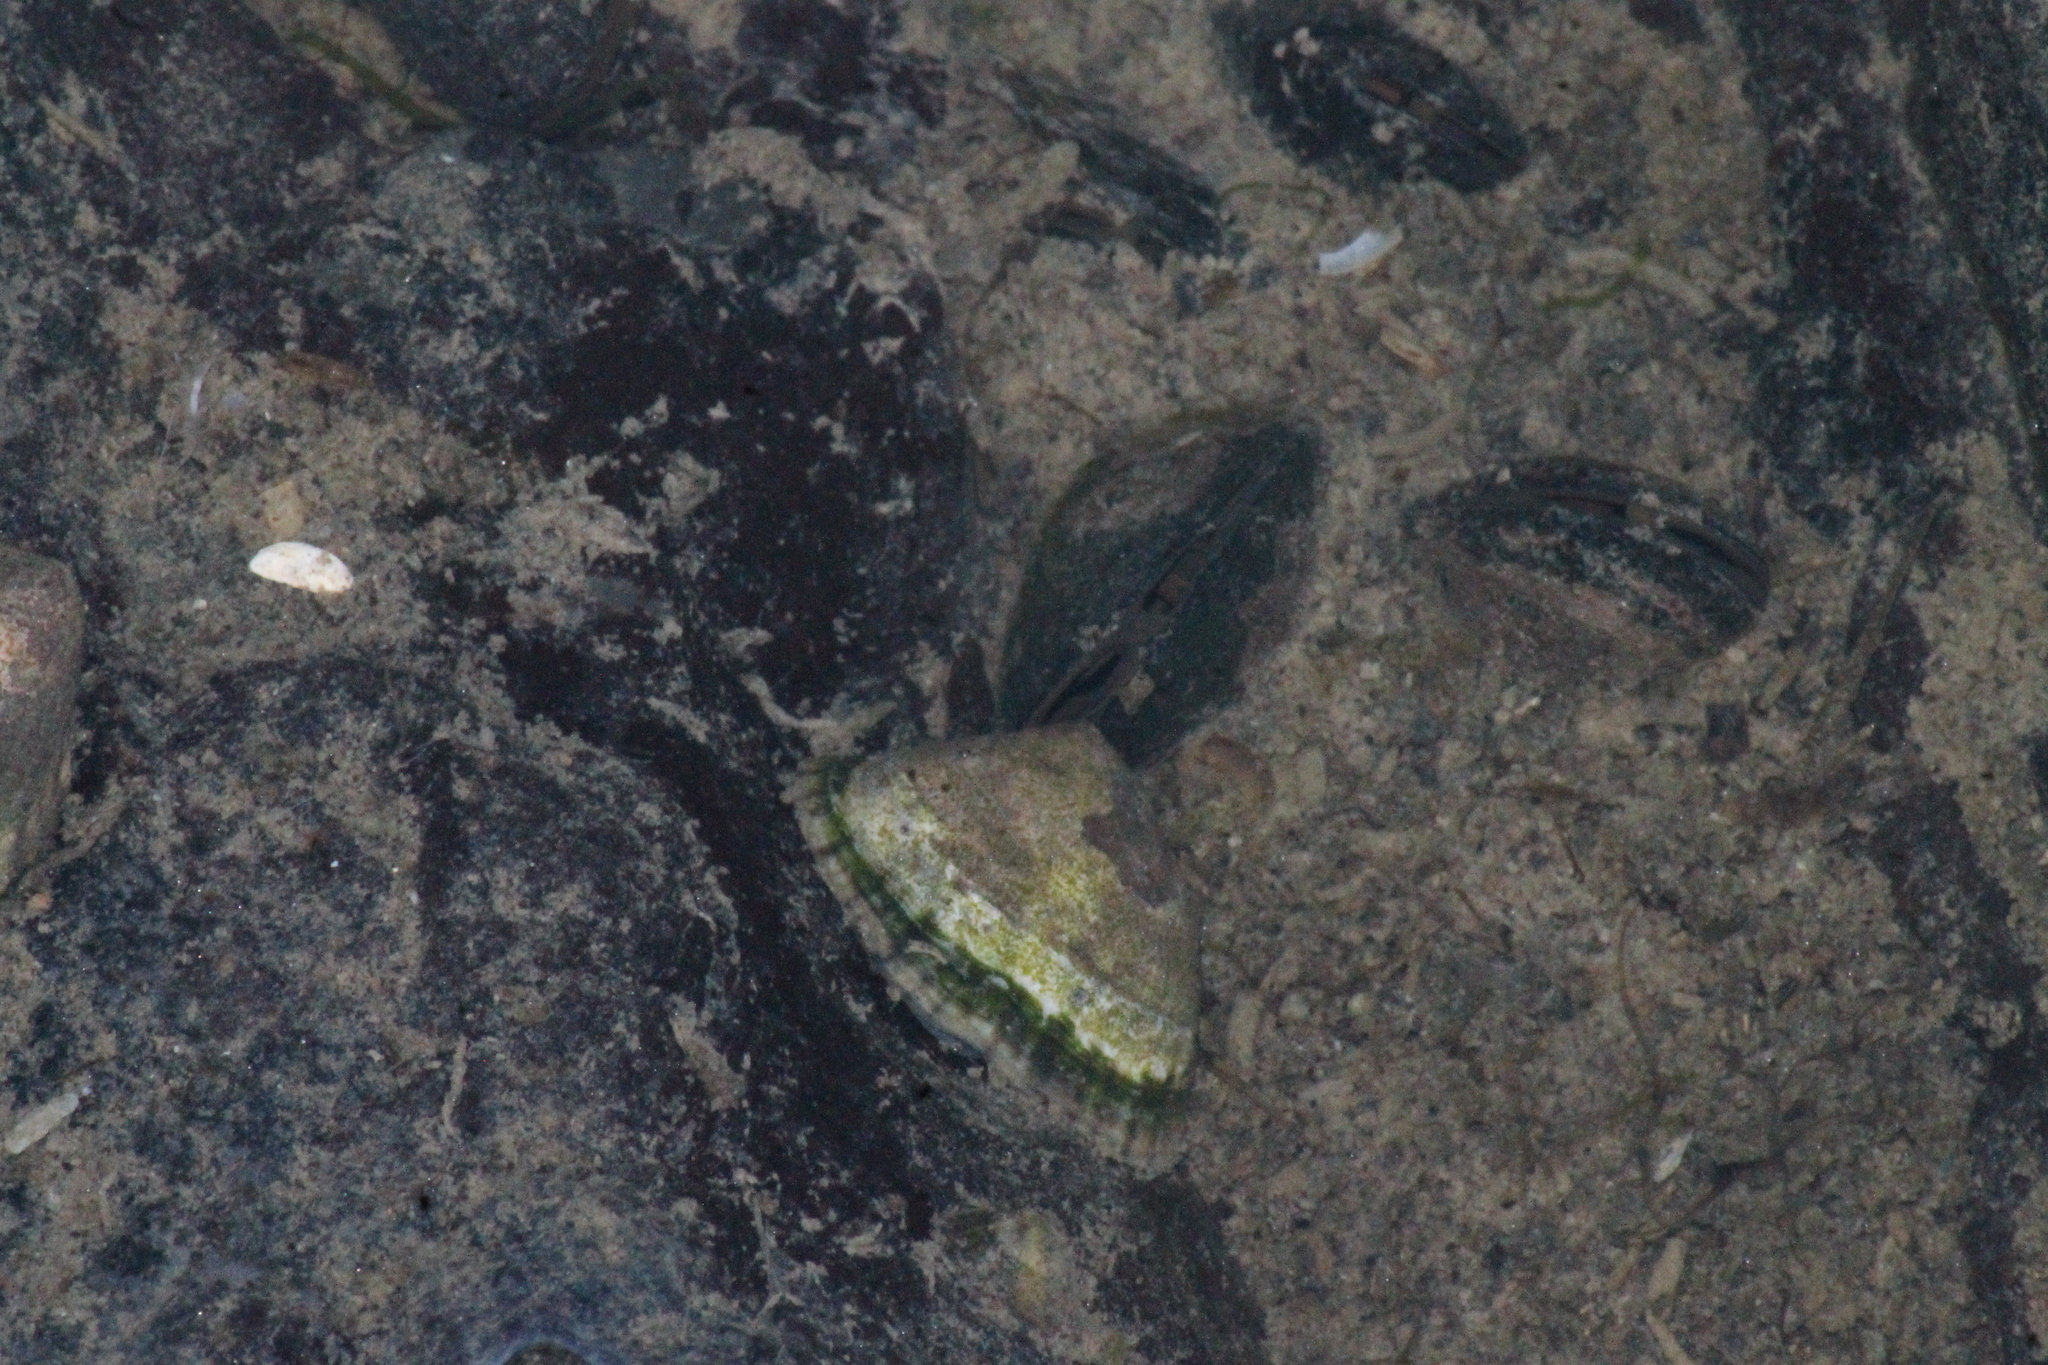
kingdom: Animalia
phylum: Mollusca
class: Gastropoda
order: Siphonariida
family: Siphonariidae
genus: Siphonaria
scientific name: Siphonaria lessonii
